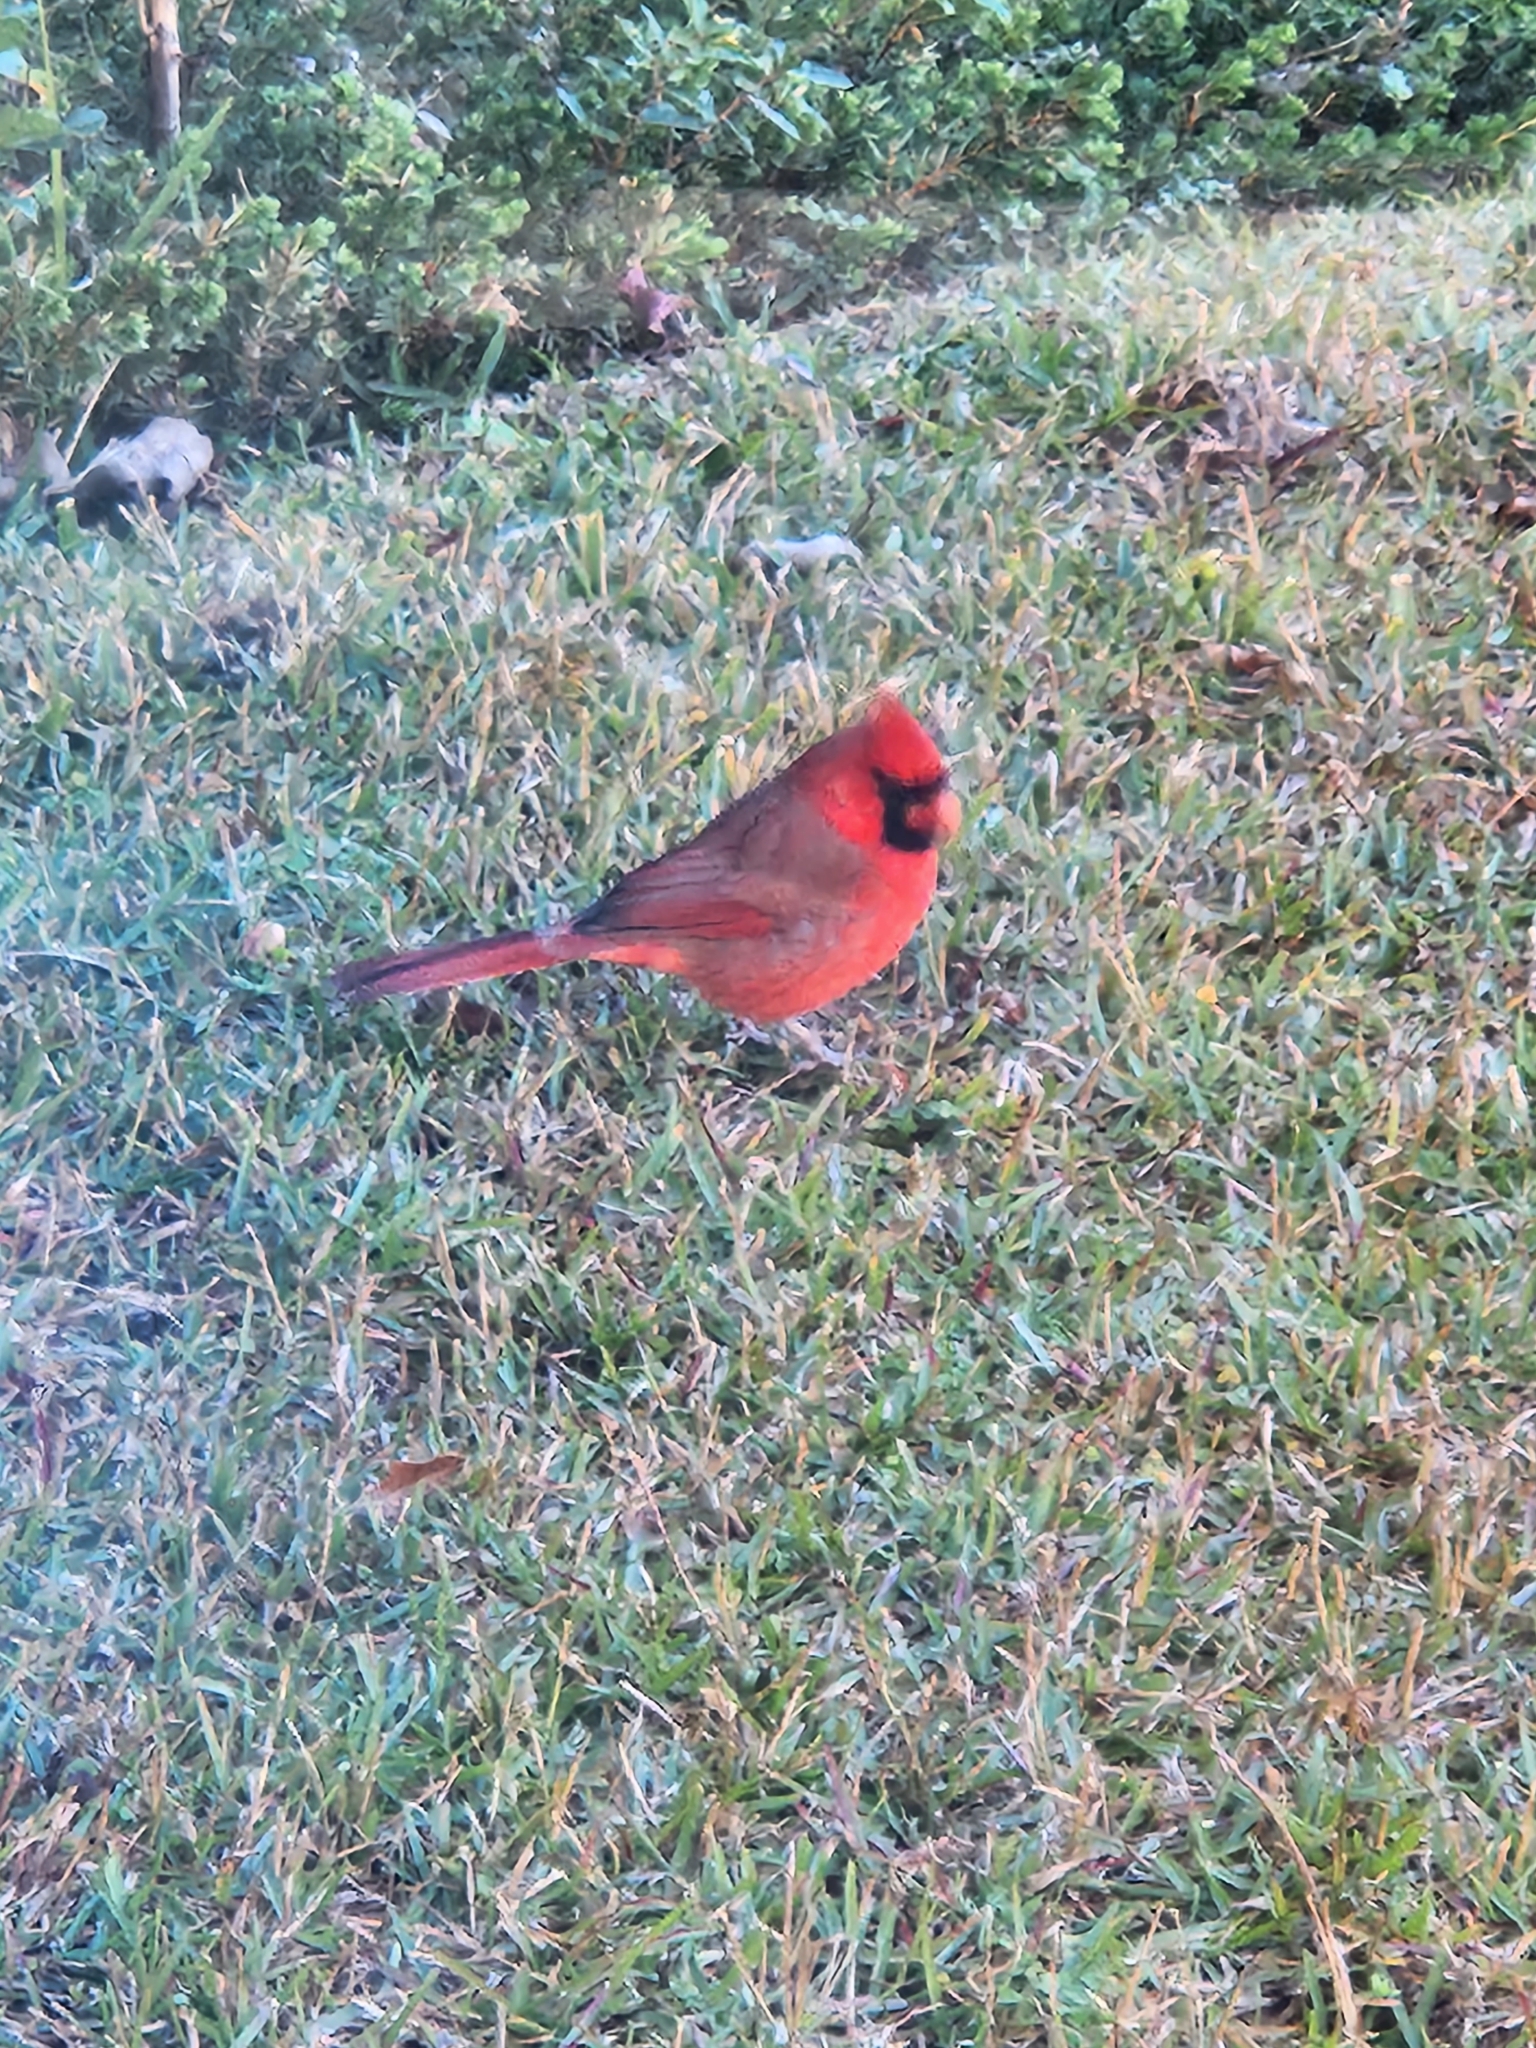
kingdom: Animalia
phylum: Chordata
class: Aves
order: Passeriformes
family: Cardinalidae
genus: Cardinalis
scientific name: Cardinalis cardinalis
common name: Northern cardinal
